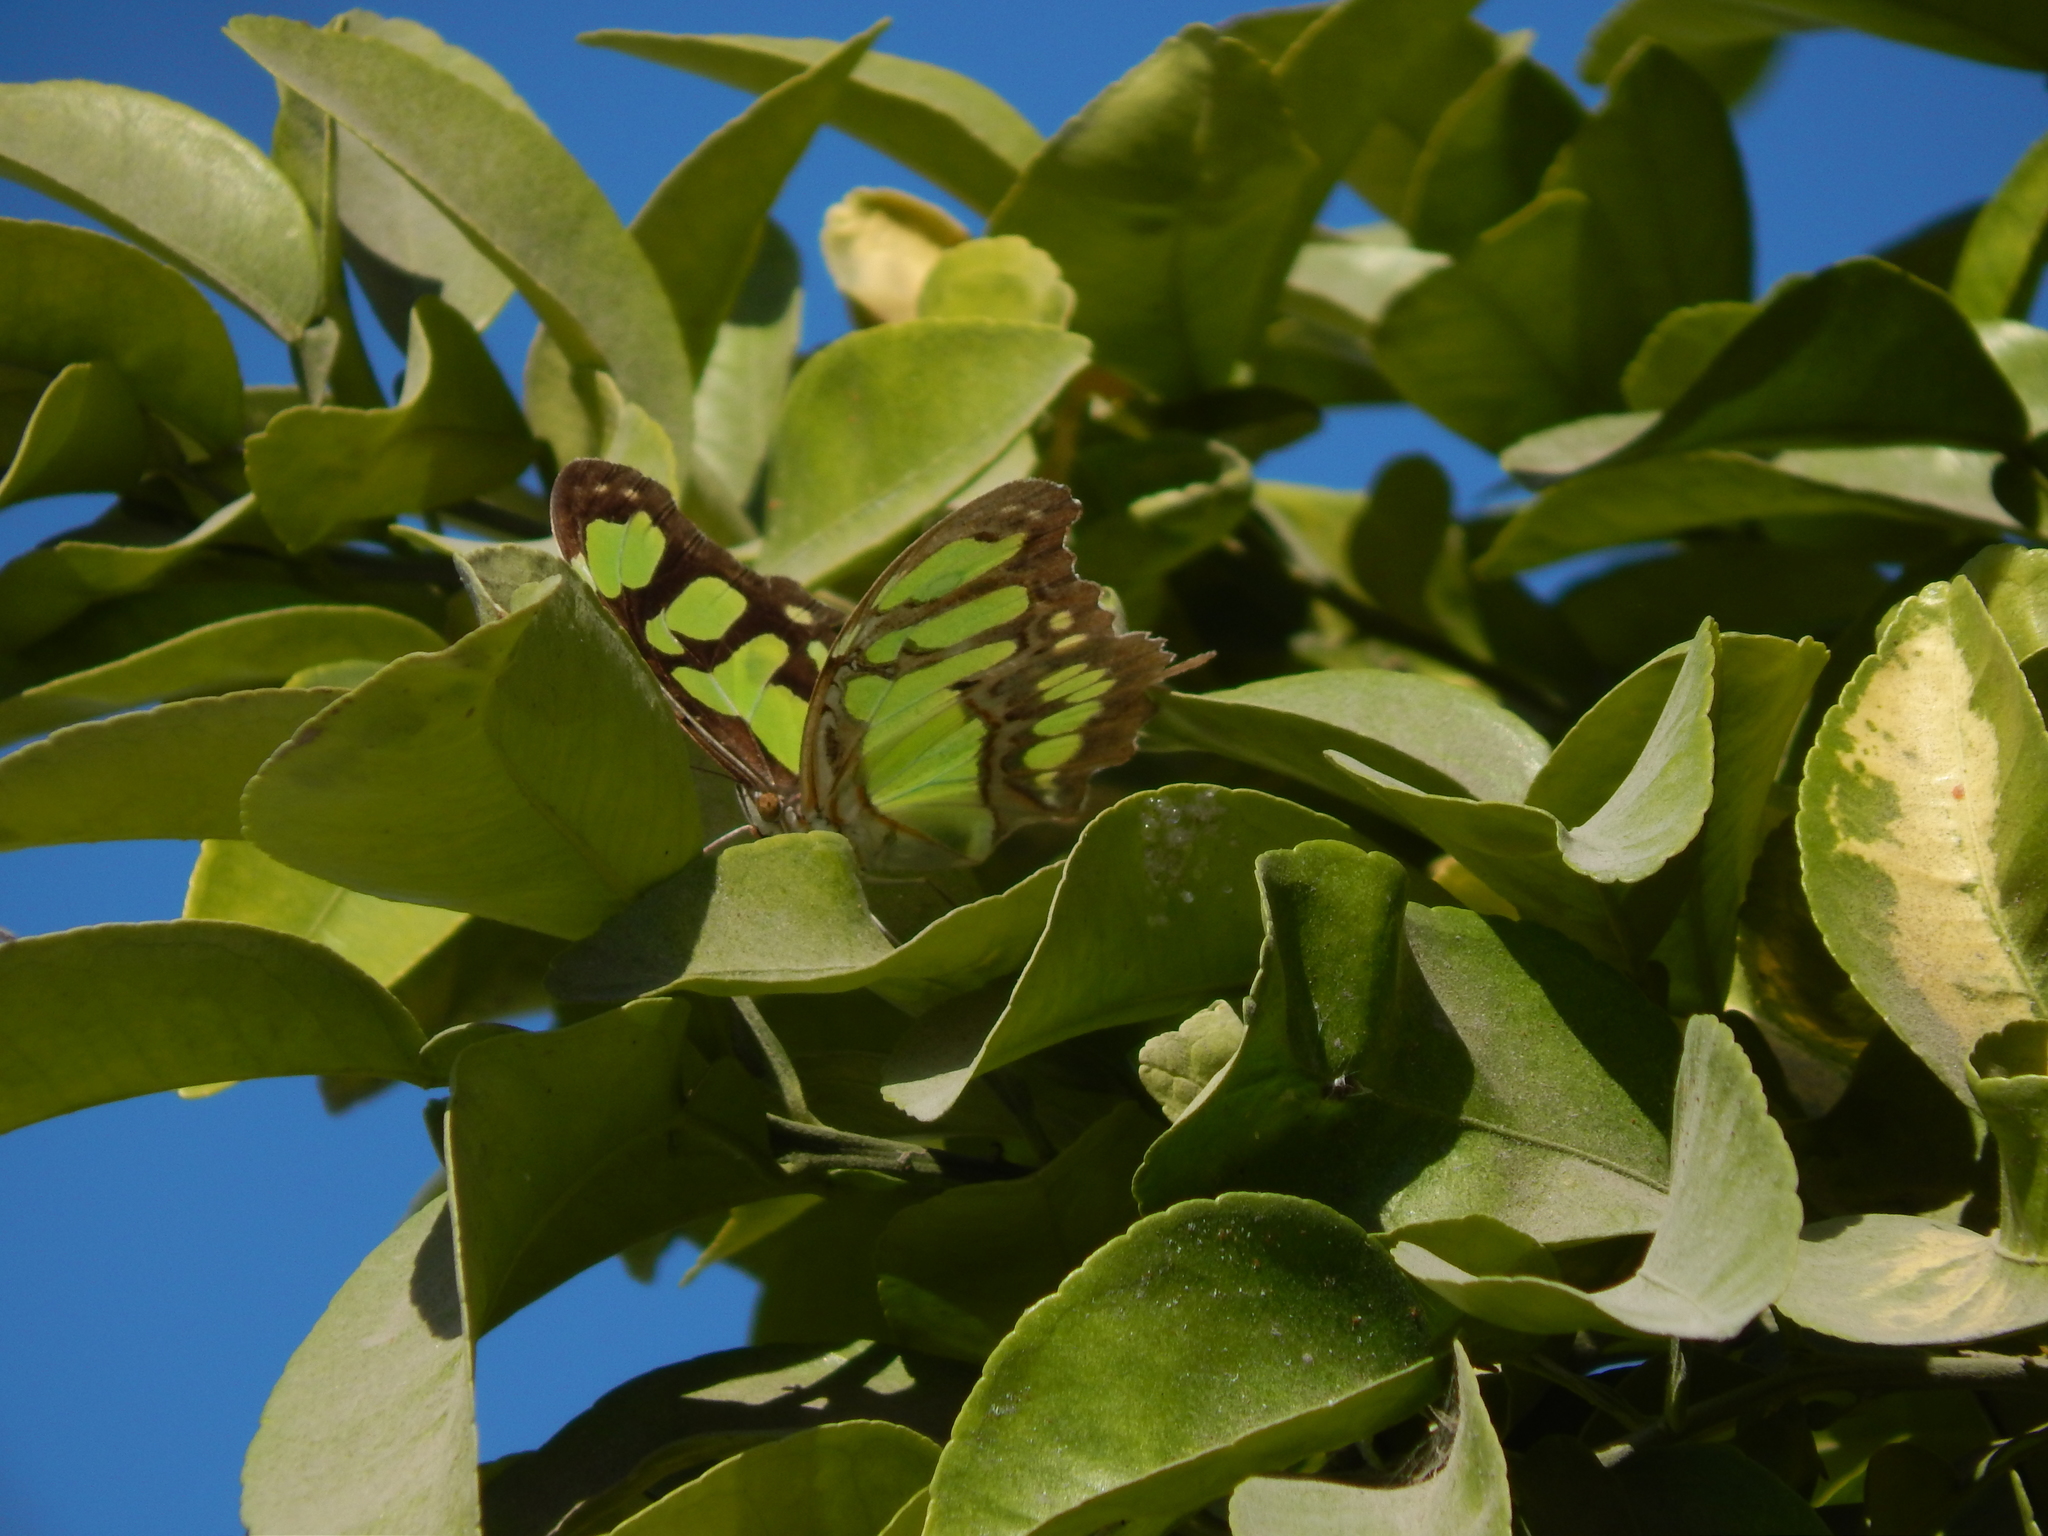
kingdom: Animalia
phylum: Arthropoda
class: Insecta
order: Lepidoptera
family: Nymphalidae
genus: Siproeta
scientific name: Siproeta stelenes
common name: Malachite
